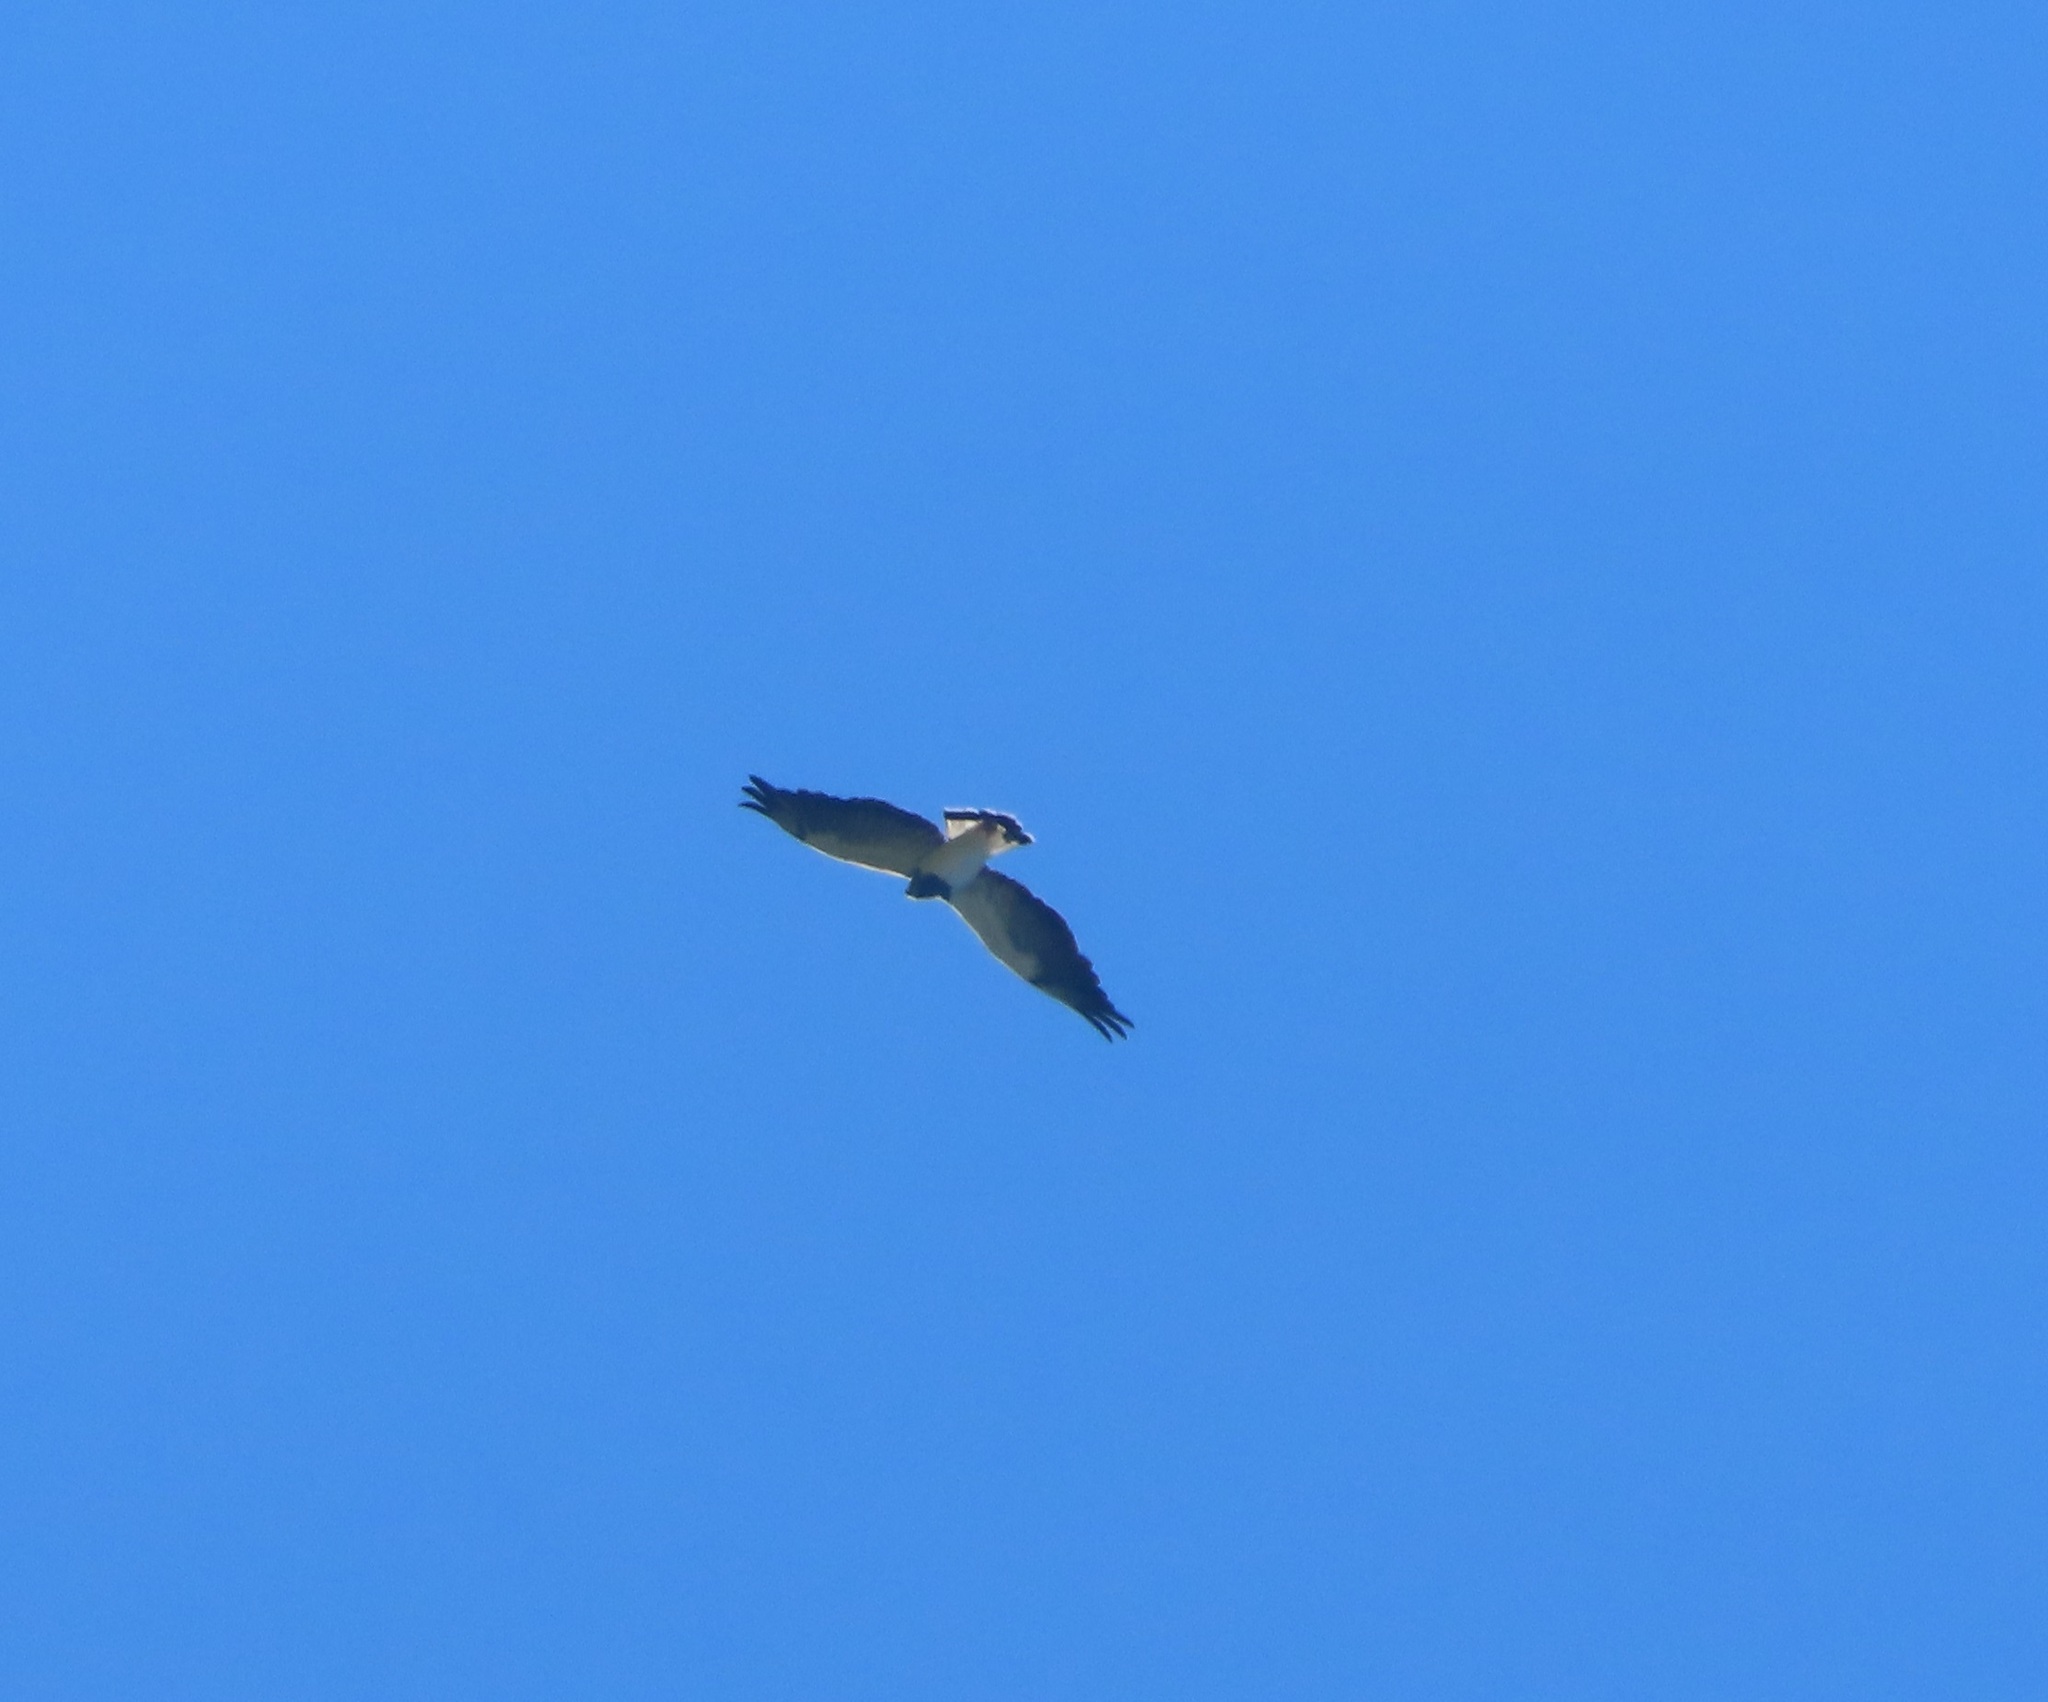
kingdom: Animalia
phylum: Chordata
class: Aves
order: Accipitriformes
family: Accipitridae
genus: Buteo
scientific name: Buteo albicaudatus
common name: White-tailed hawk
